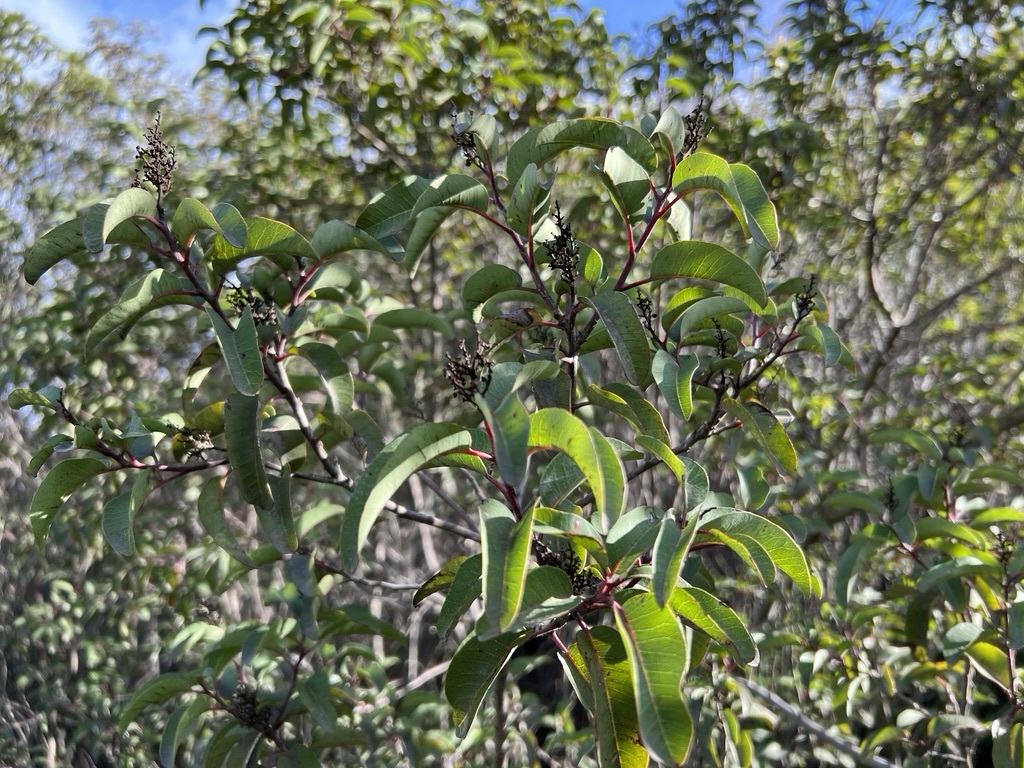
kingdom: Plantae
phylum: Tracheophyta
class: Magnoliopsida
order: Sapindales
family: Anacardiaceae
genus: Malosma
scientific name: Malosma laurina
